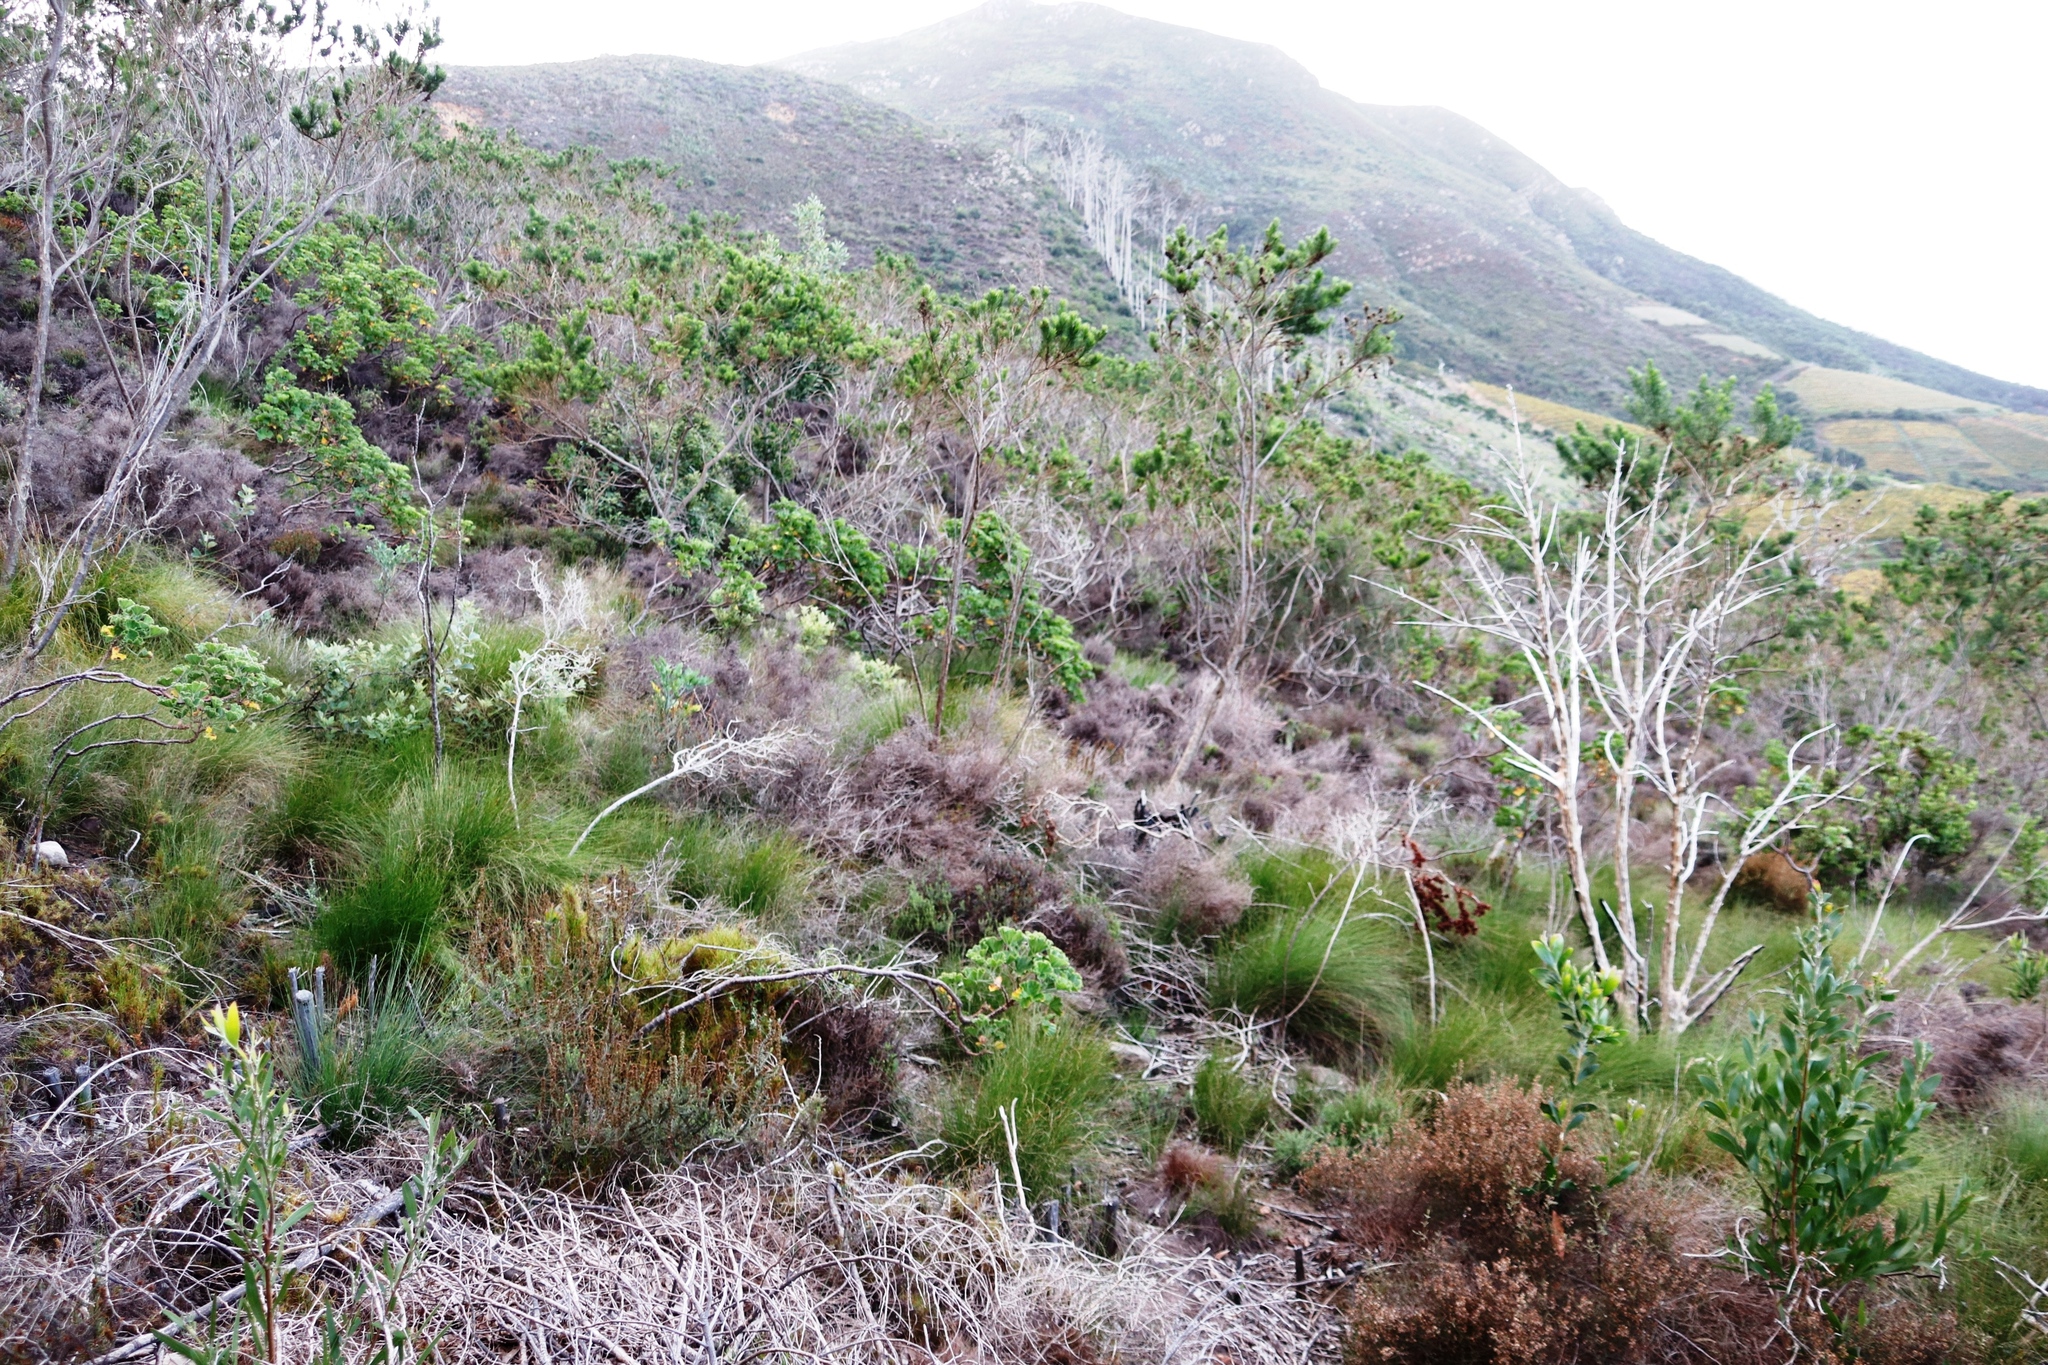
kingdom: Plantae
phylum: Tracheophyta
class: Magnoliopsida
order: Fabales
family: Fabaceae
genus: Psoralea
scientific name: Psoralea pinnata
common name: African scurfpea
